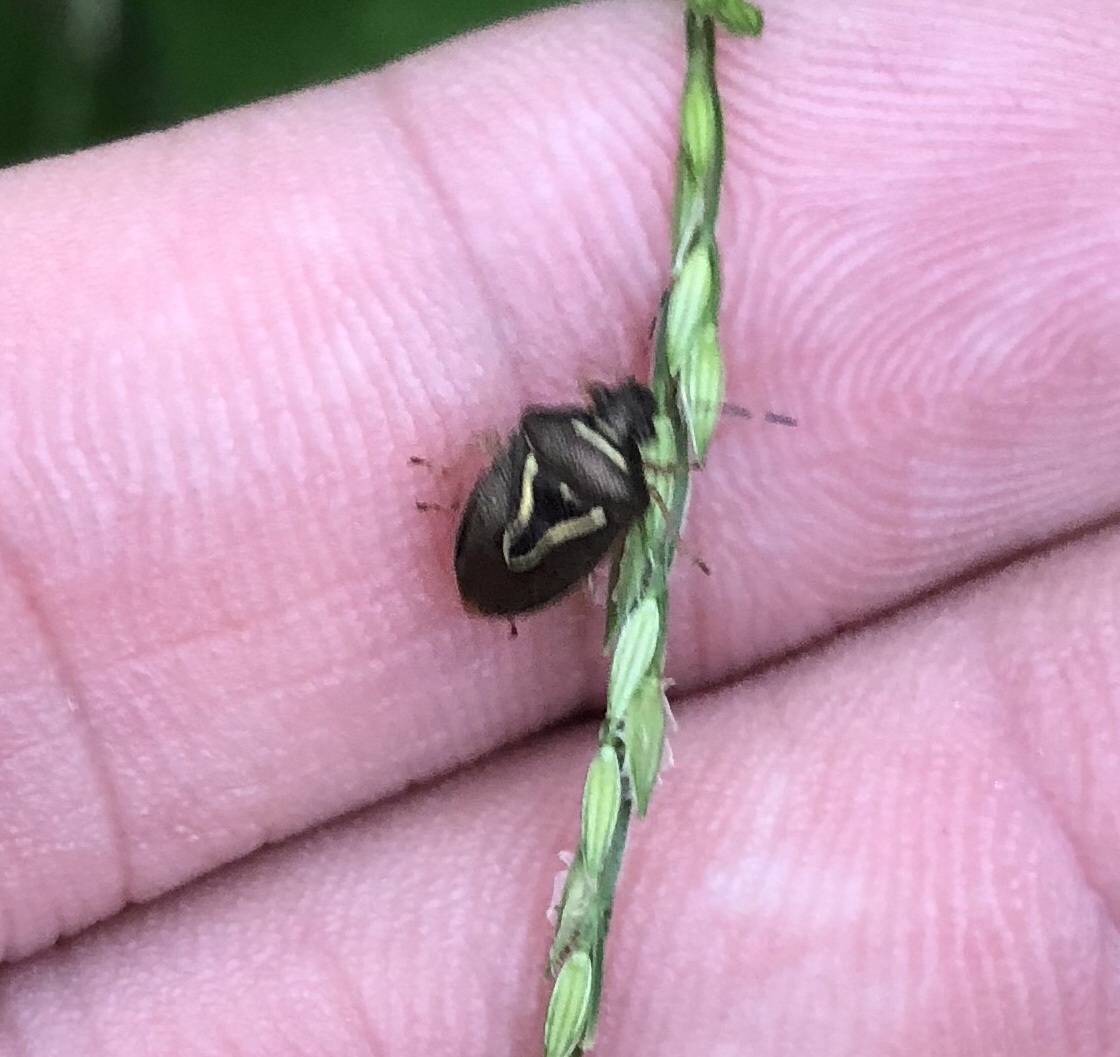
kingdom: Animalia
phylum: Arthropoda
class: Insecta
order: Hemiptera
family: Pentatomidae
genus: Mormidea
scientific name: Mormidea lugens
